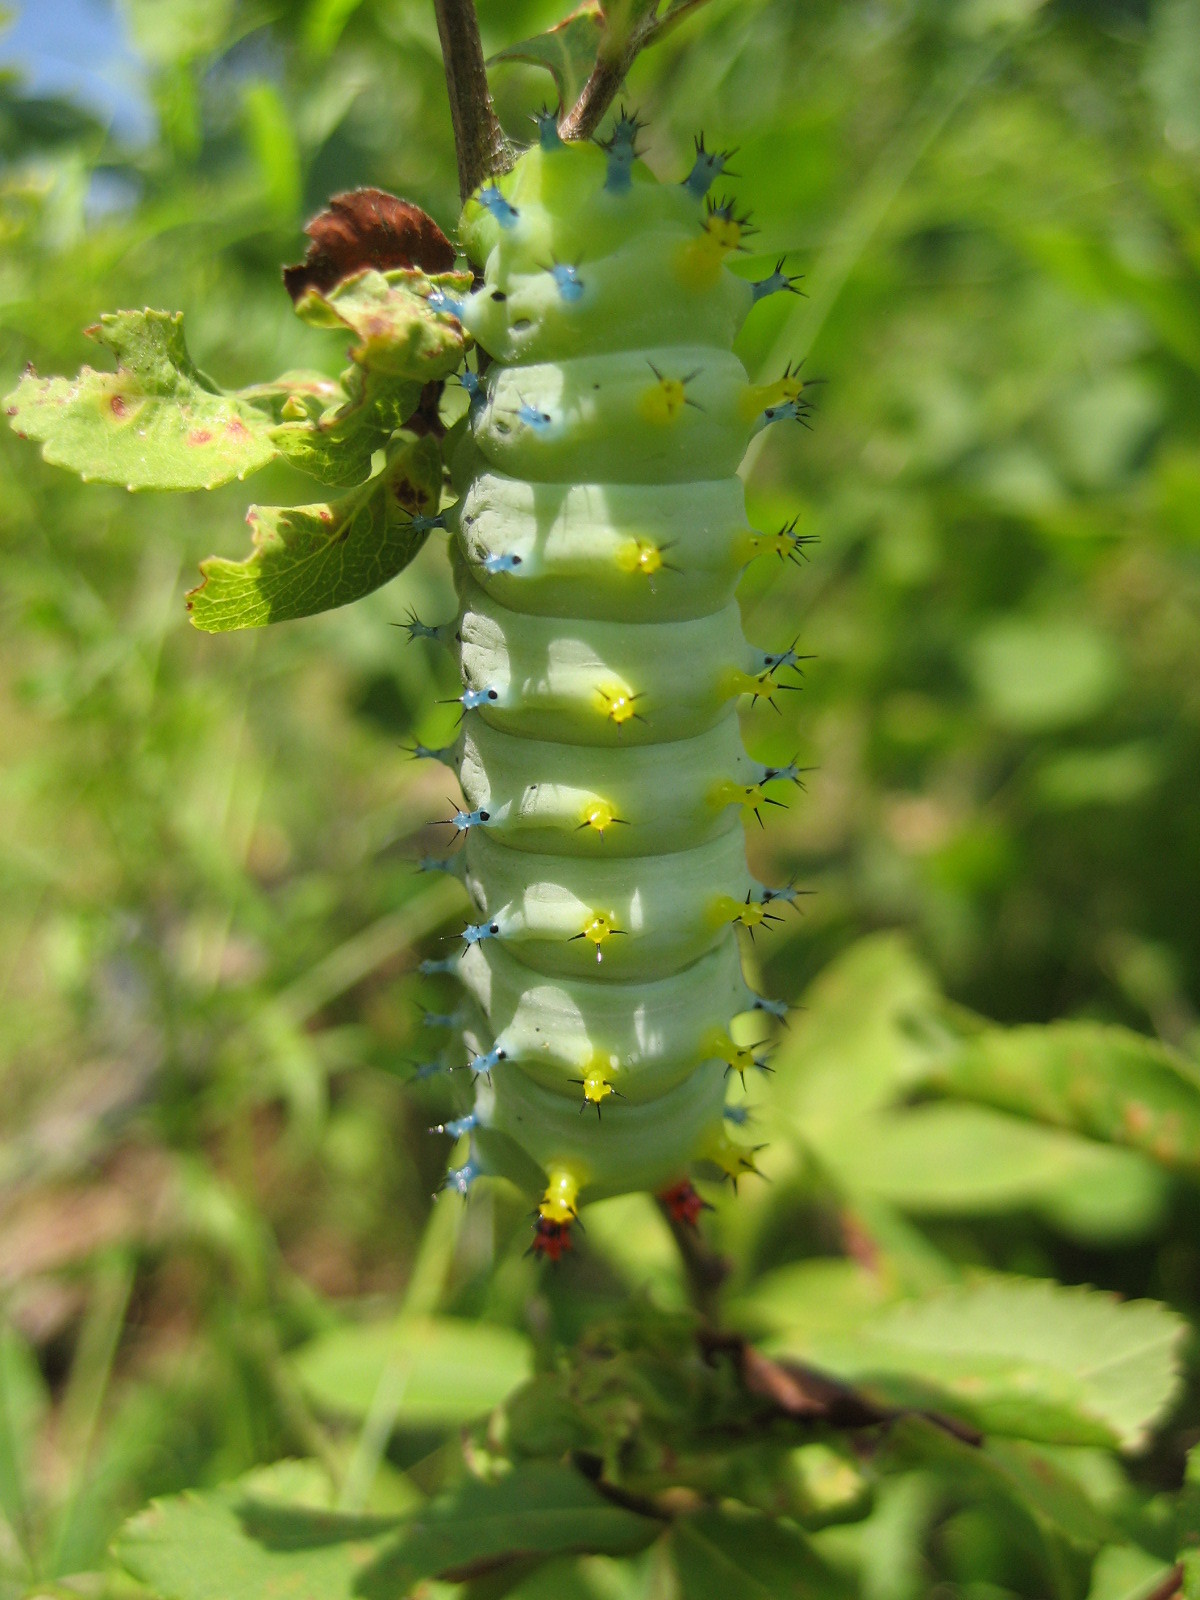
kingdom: Animalia
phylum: Arthropoda
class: Insecta
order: Lepidoptera
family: Saturniidae
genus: Hyalophora
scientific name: Hyalophora cecropia
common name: Cecropia silkmoth
